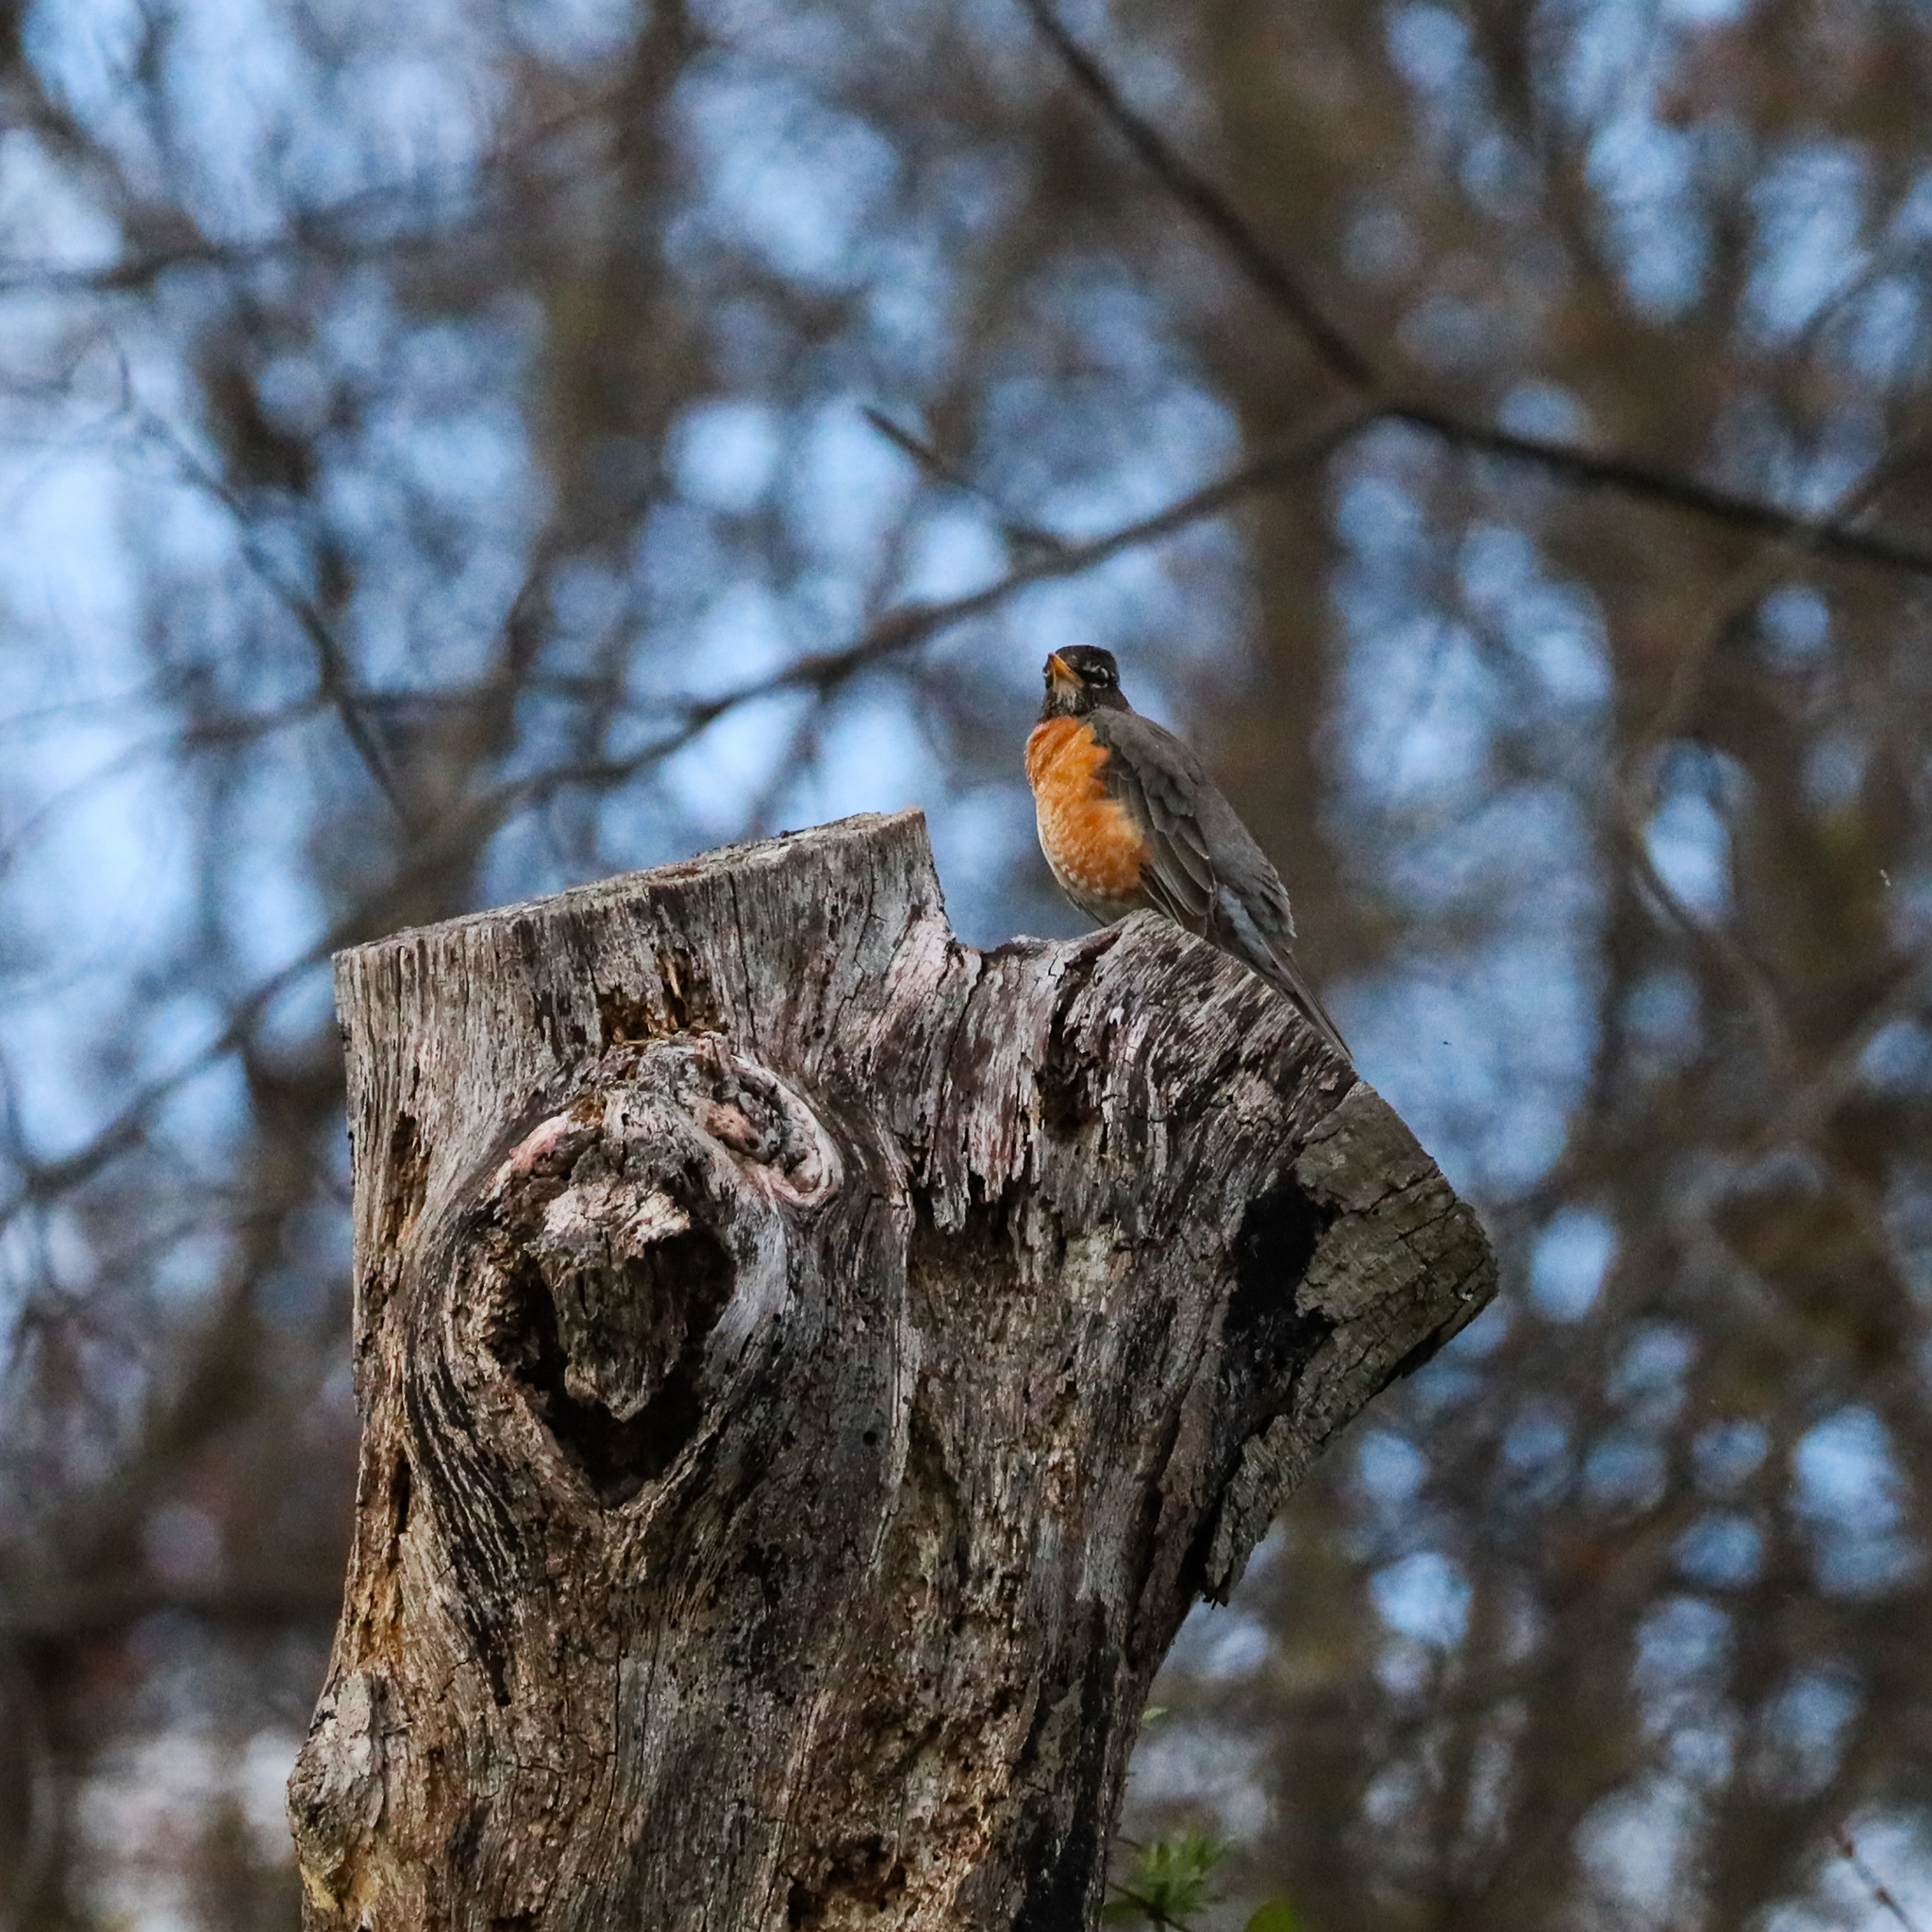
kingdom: Animalia
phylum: Chordata
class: Aves
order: Passeriformes
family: Turdidae
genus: Turdus
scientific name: Turdus migratorius
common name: American robin
